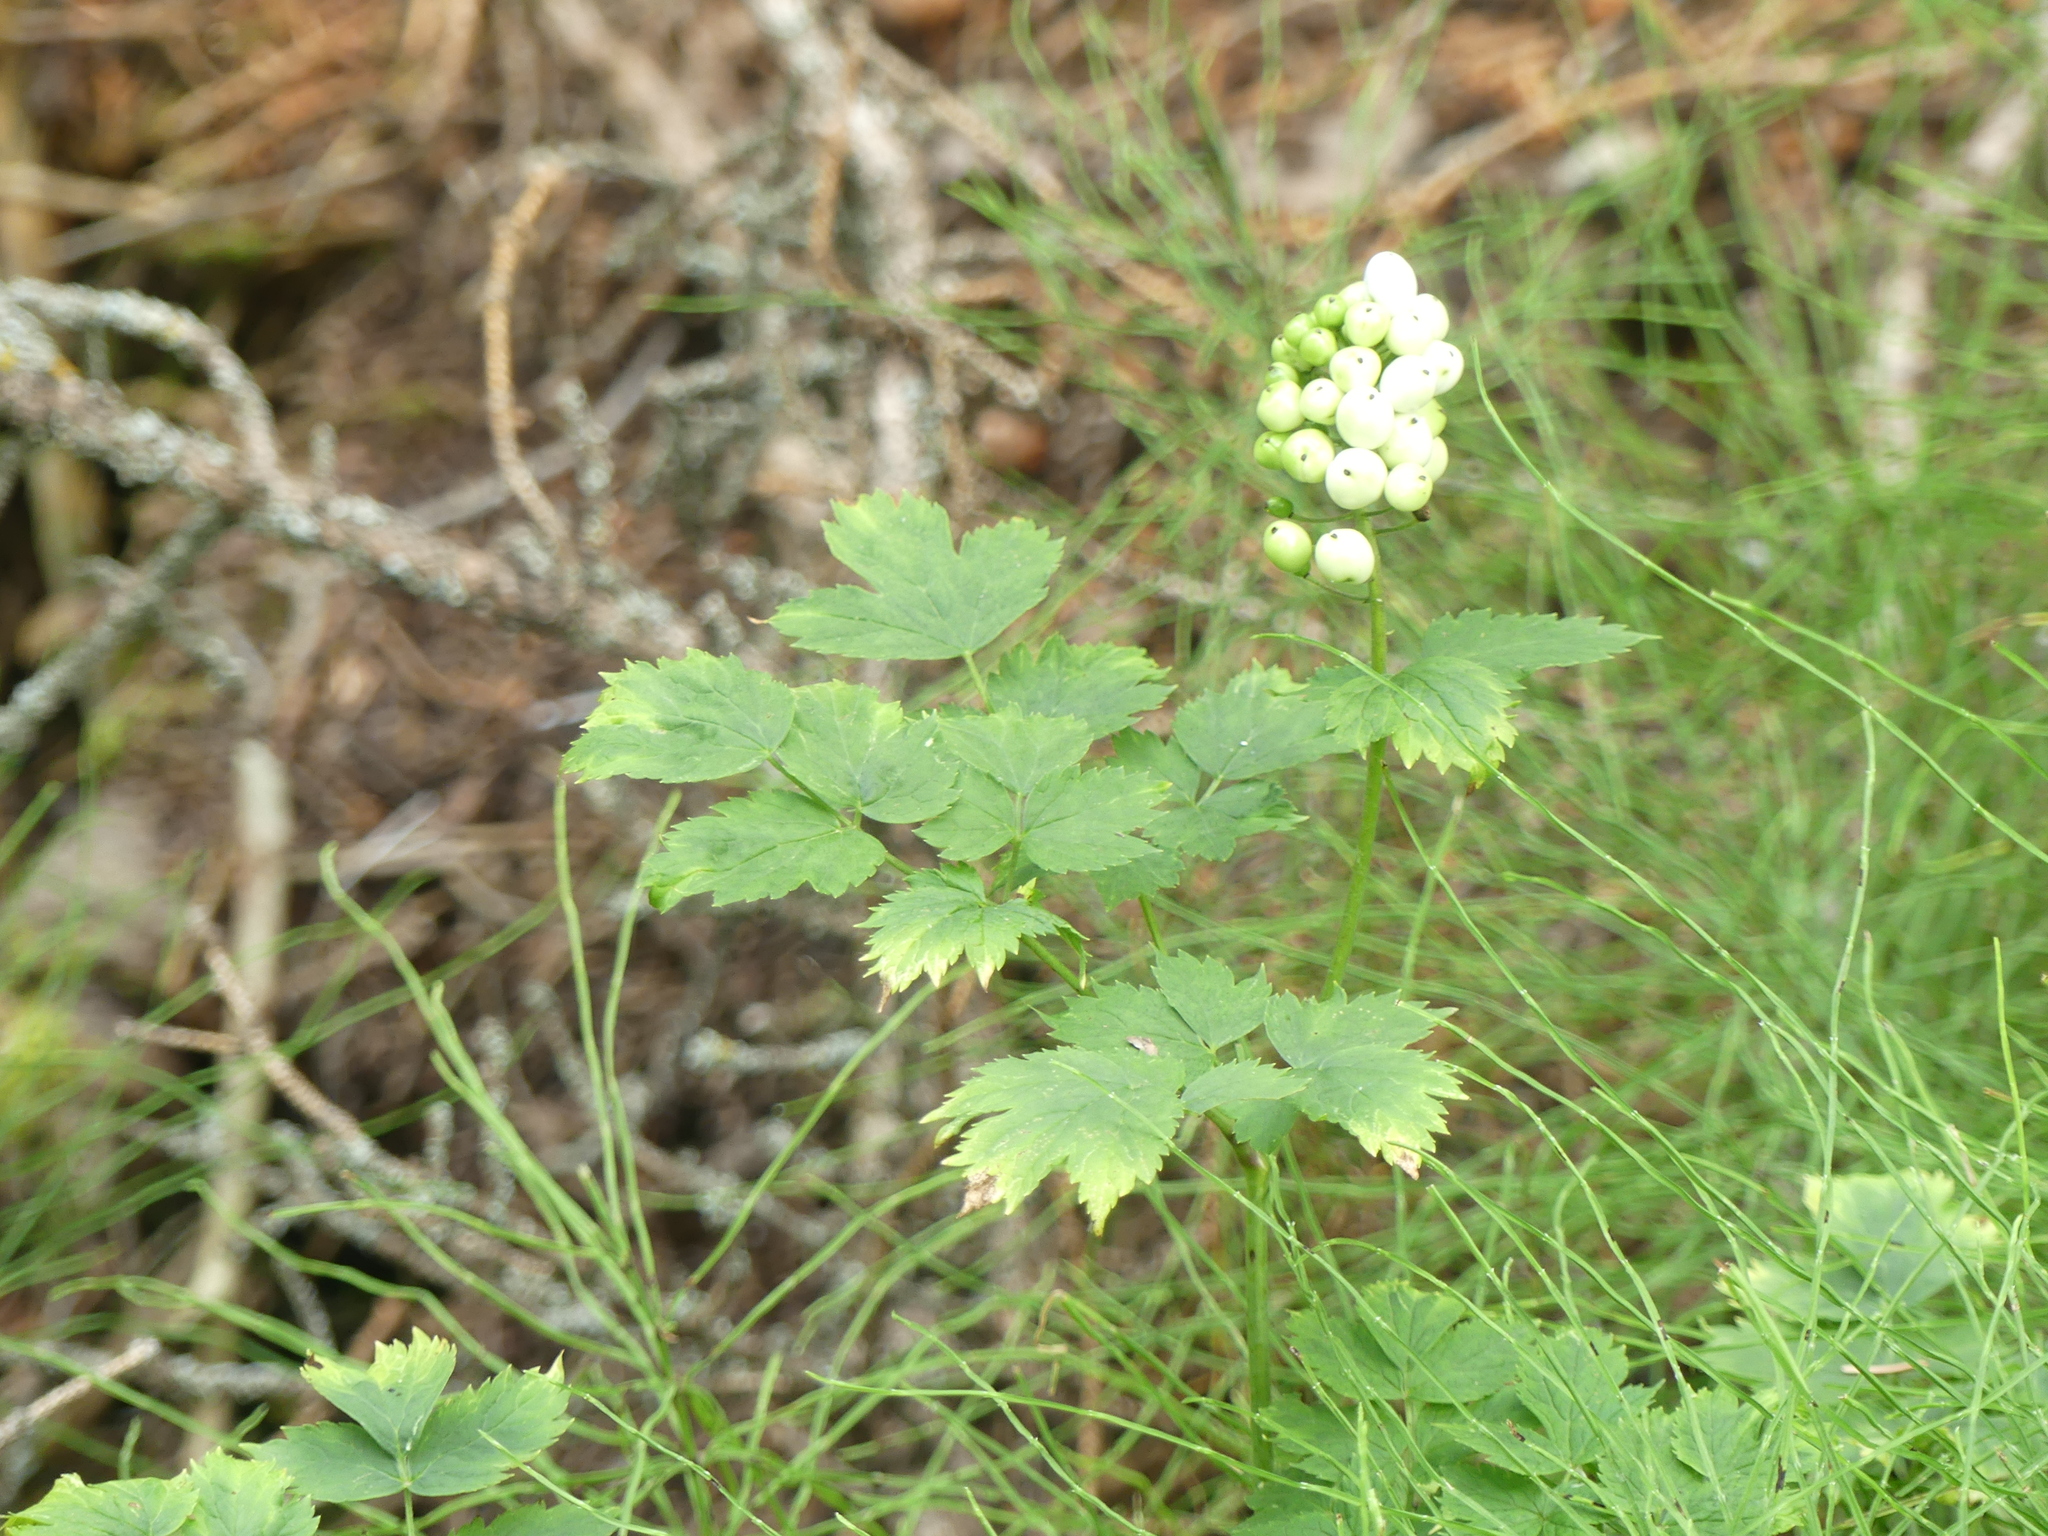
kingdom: Plantae
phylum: Tracheophyta
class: Magnoliopsida
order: Ranunculales
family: Ranunculaceae
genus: Actaea
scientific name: Actaea rubra
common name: Red baneberry
